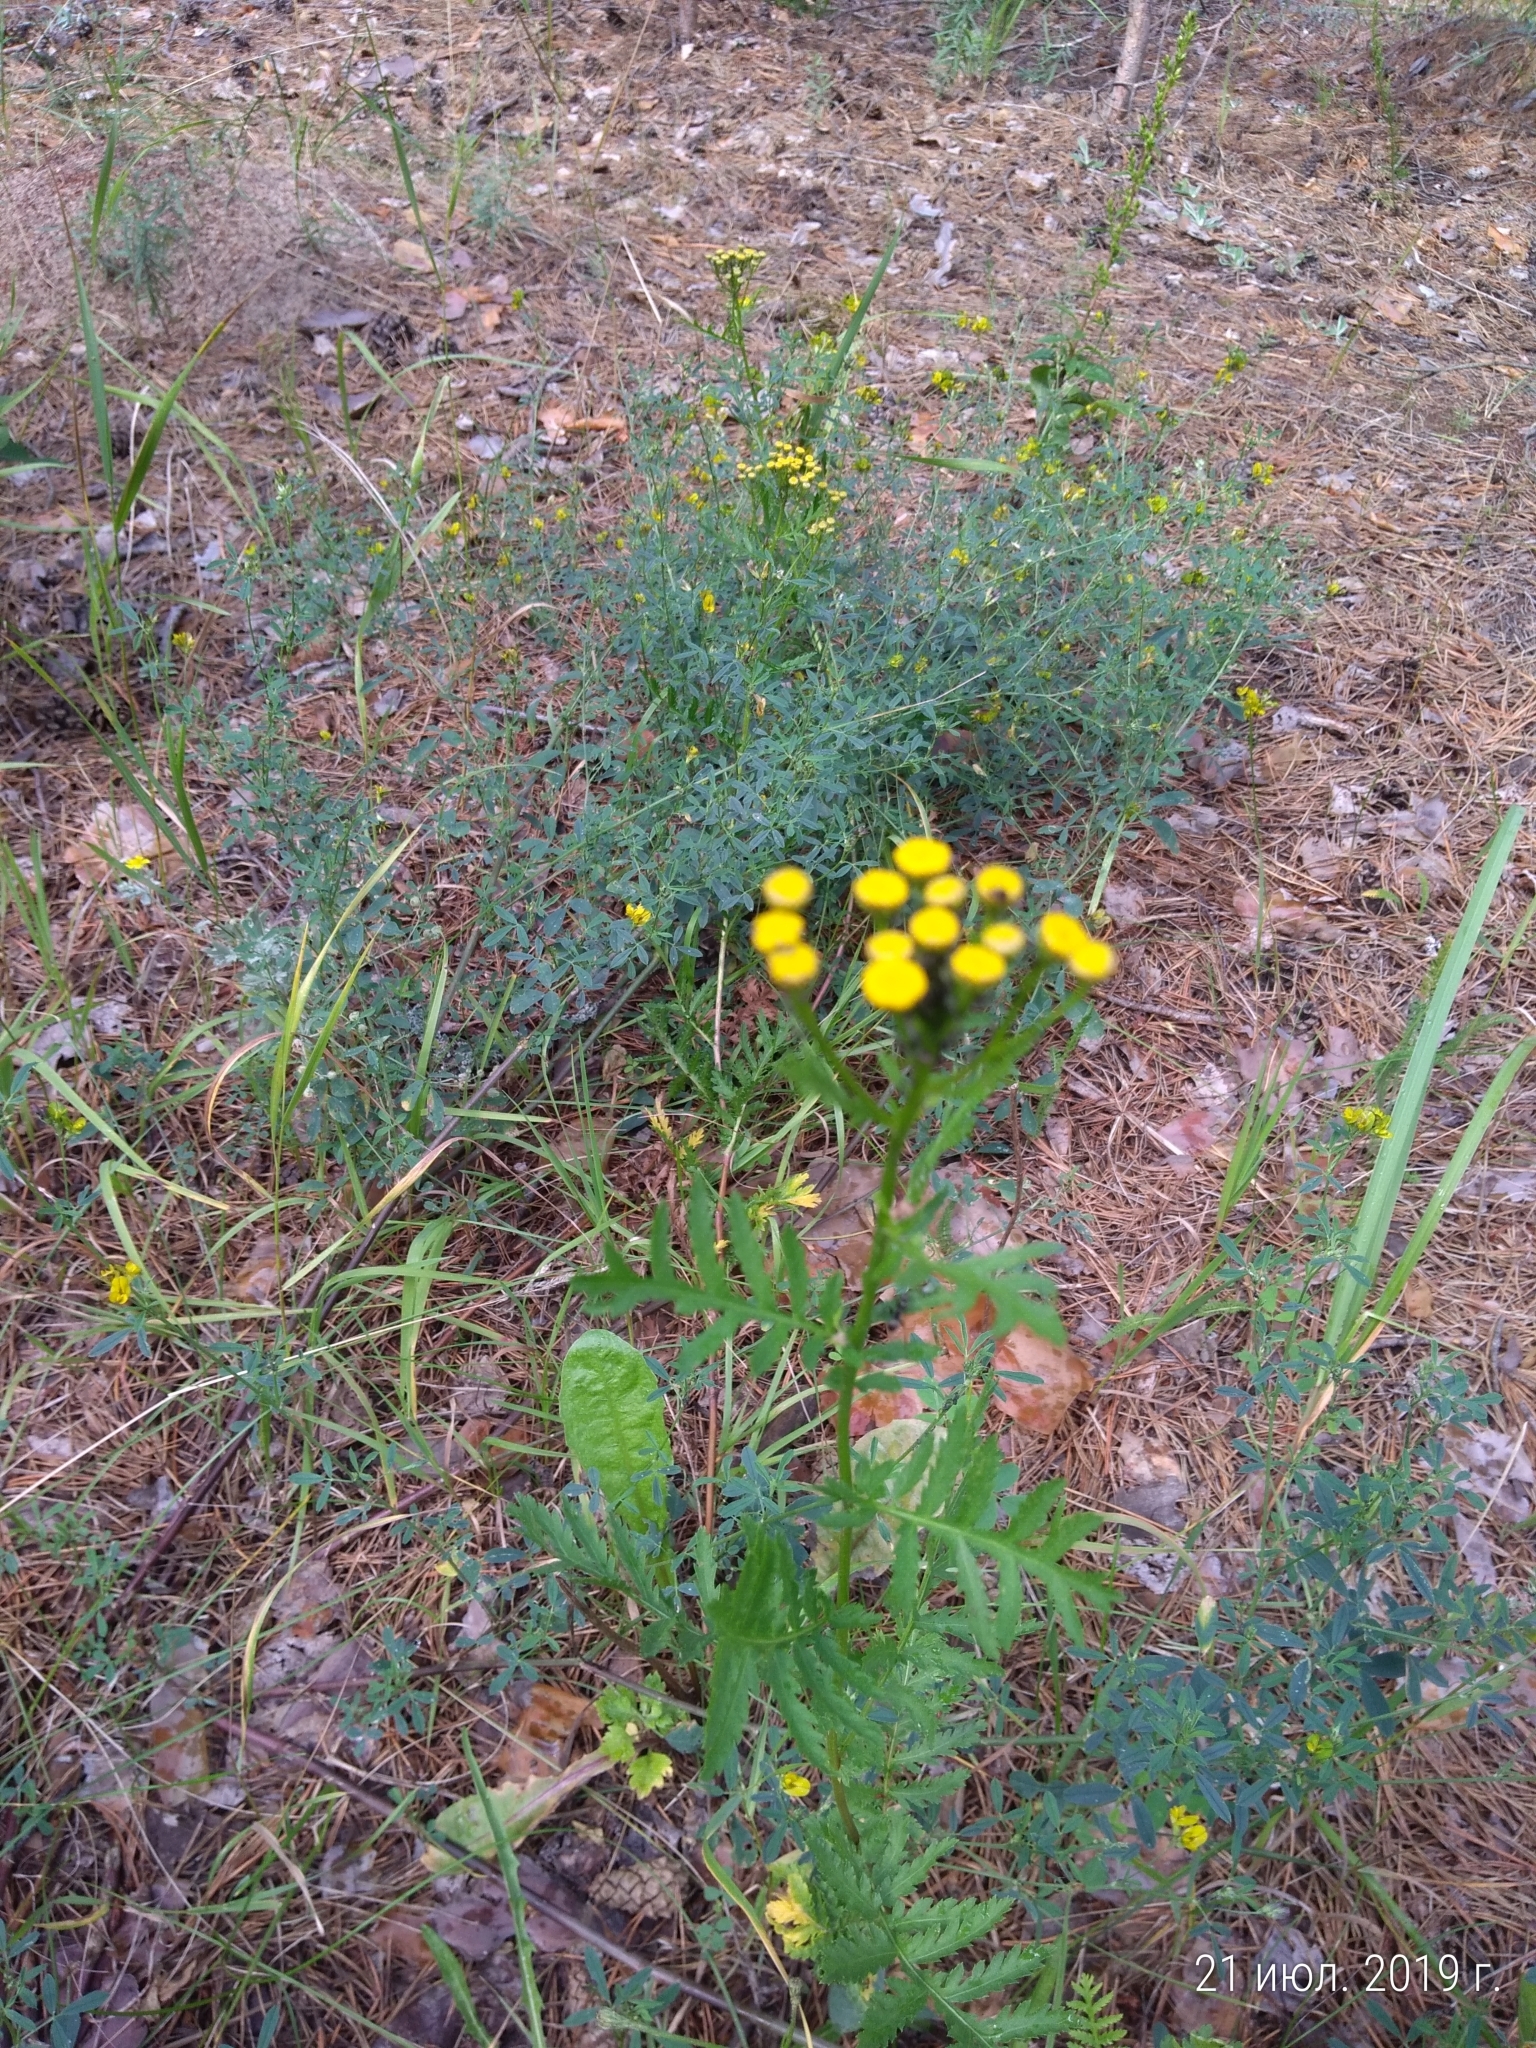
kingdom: Plantae
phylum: Tracheophyta
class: Magnoliopsida
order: Asterales
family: Asteraceae
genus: Tanacetum
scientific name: Tanacetum vulgare
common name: Common tansy
